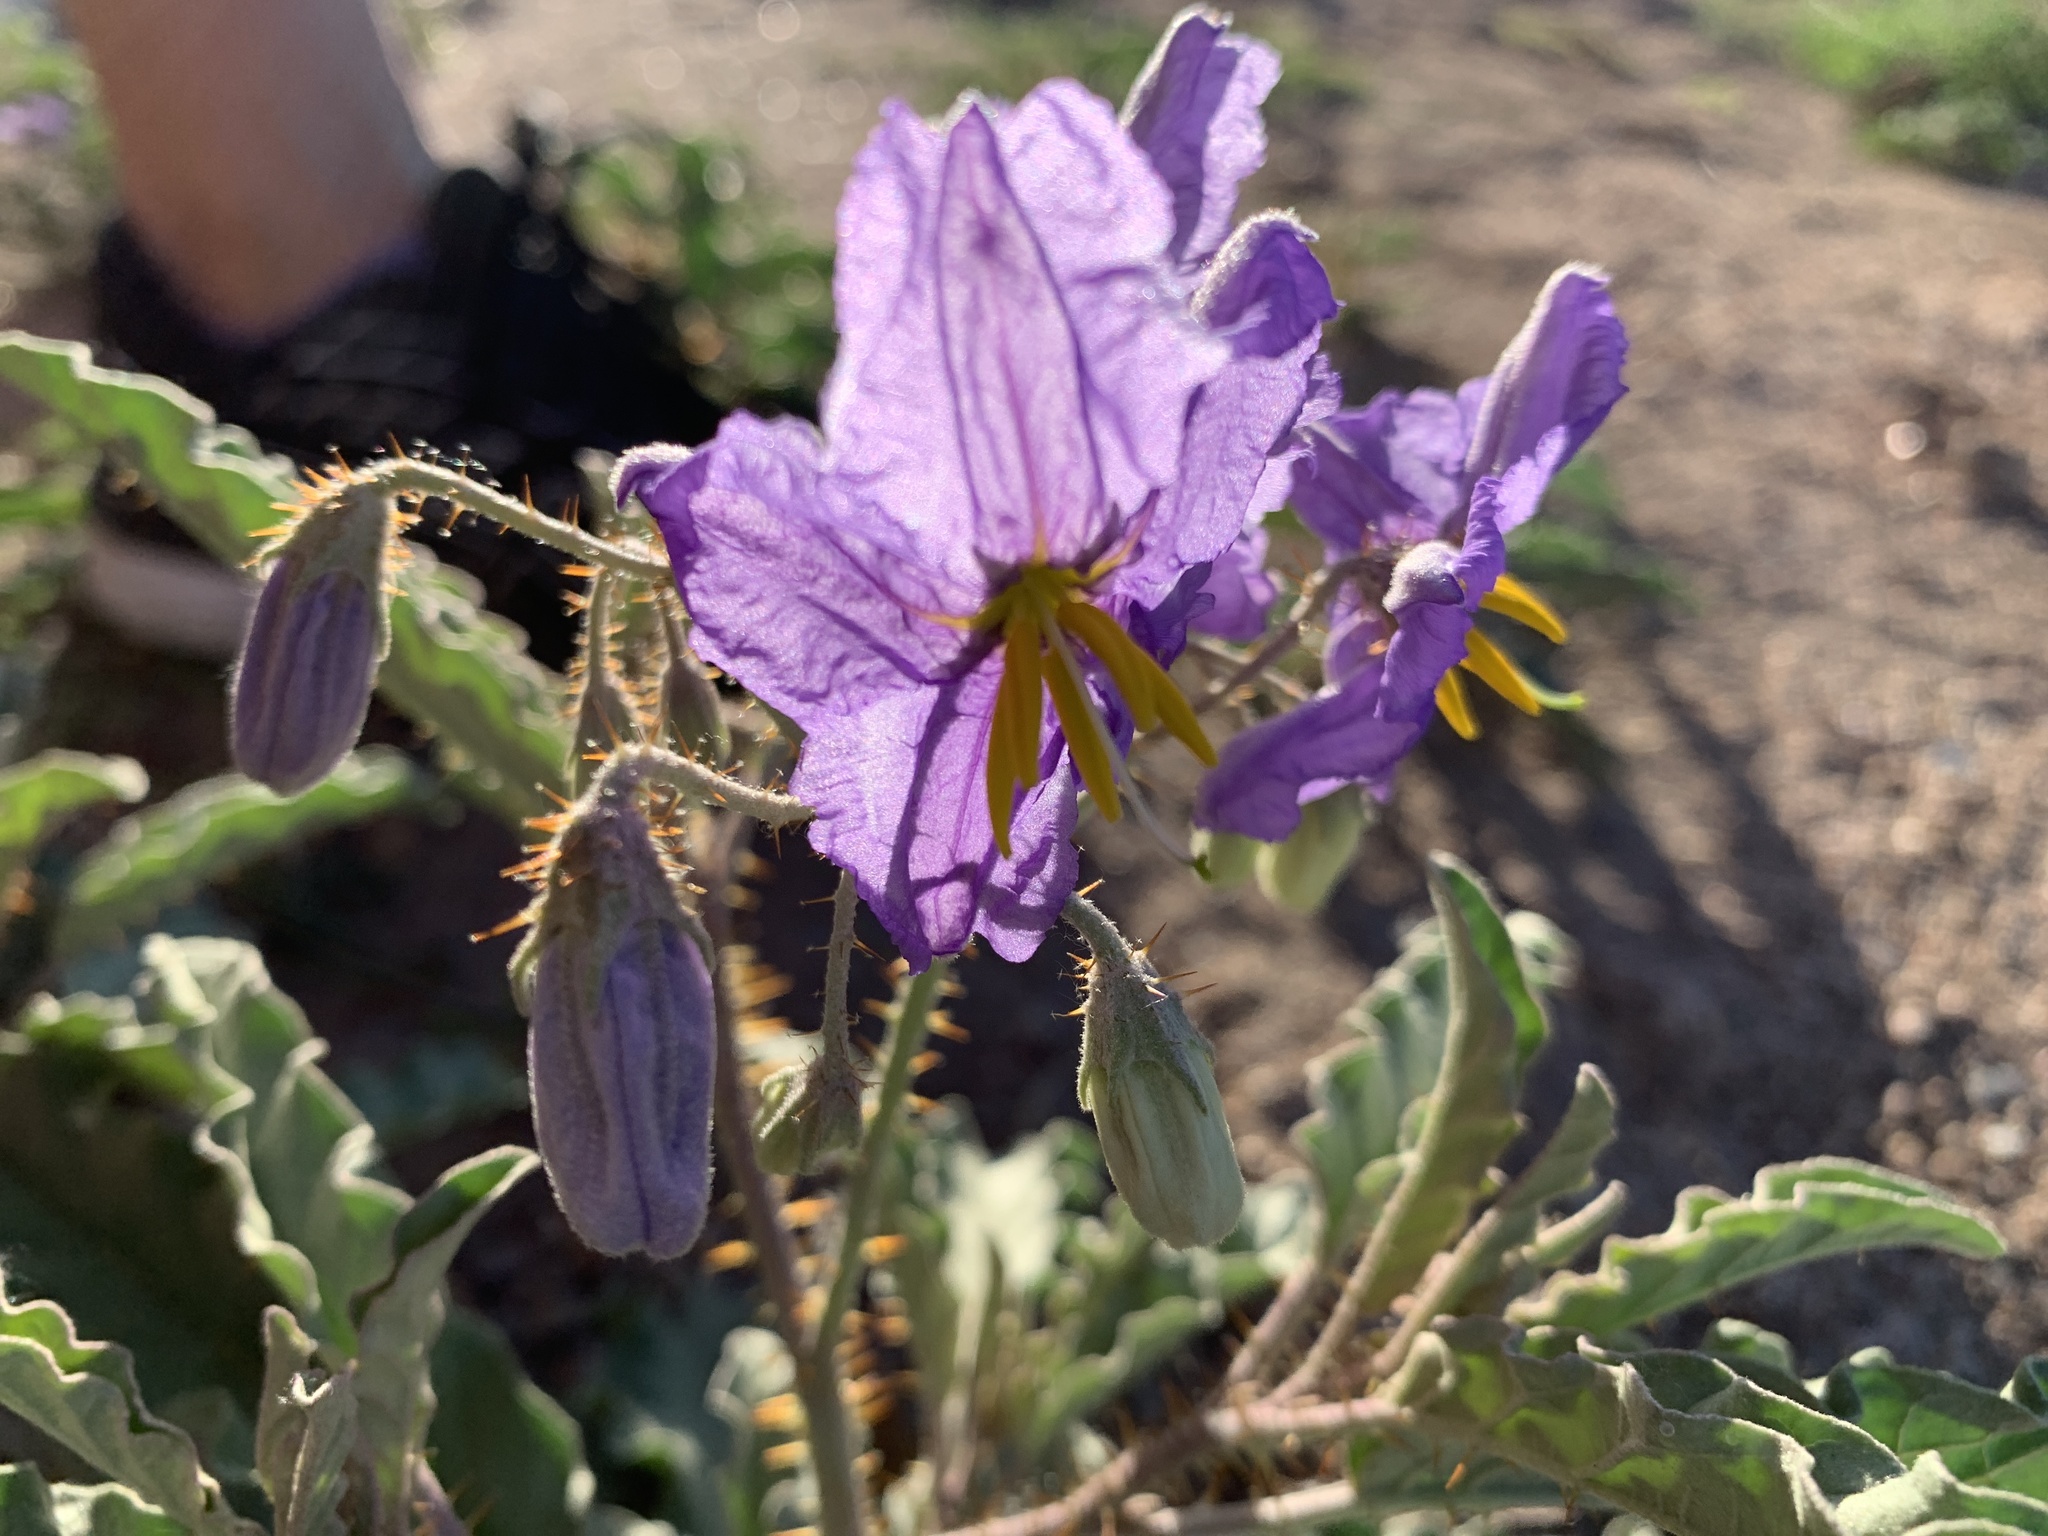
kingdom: Plantae
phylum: Tracheophyta
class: Magnoliopsida
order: Solanales
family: Solanaceae
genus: Solanum
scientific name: Solanum elaeagnifolium
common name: Silverleaf nightshade
